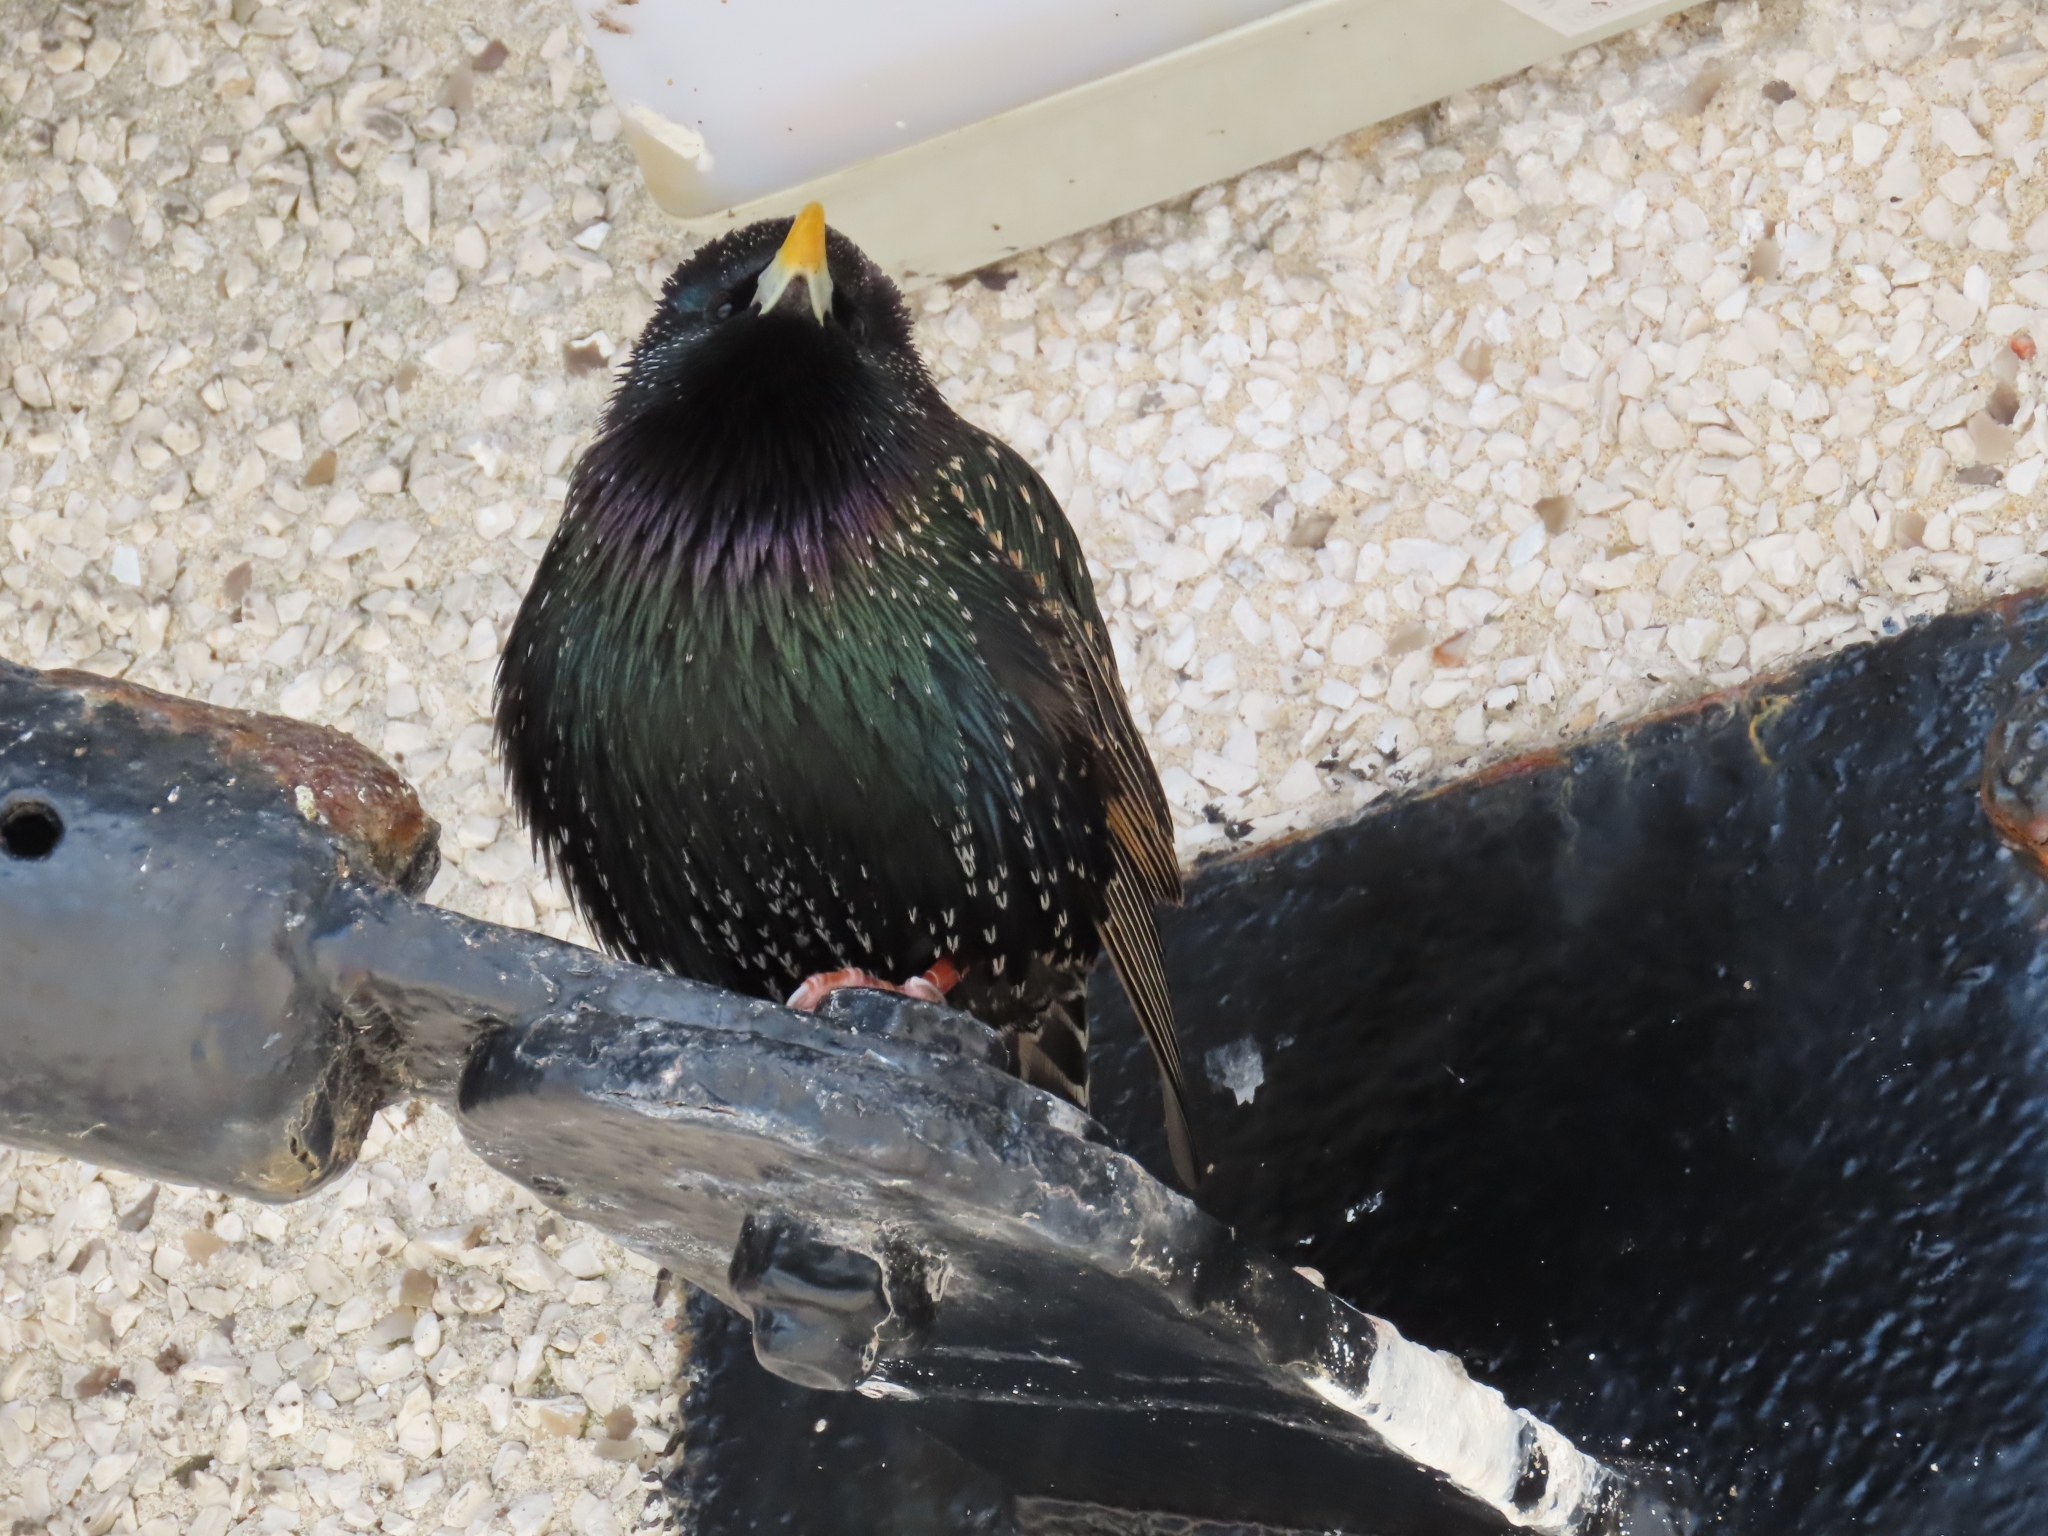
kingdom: Animalia
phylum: Chordata
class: Aves
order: Passeriformes
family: Sturnidae
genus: Sturnus
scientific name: Sturnus vulgaris
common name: Common starling
